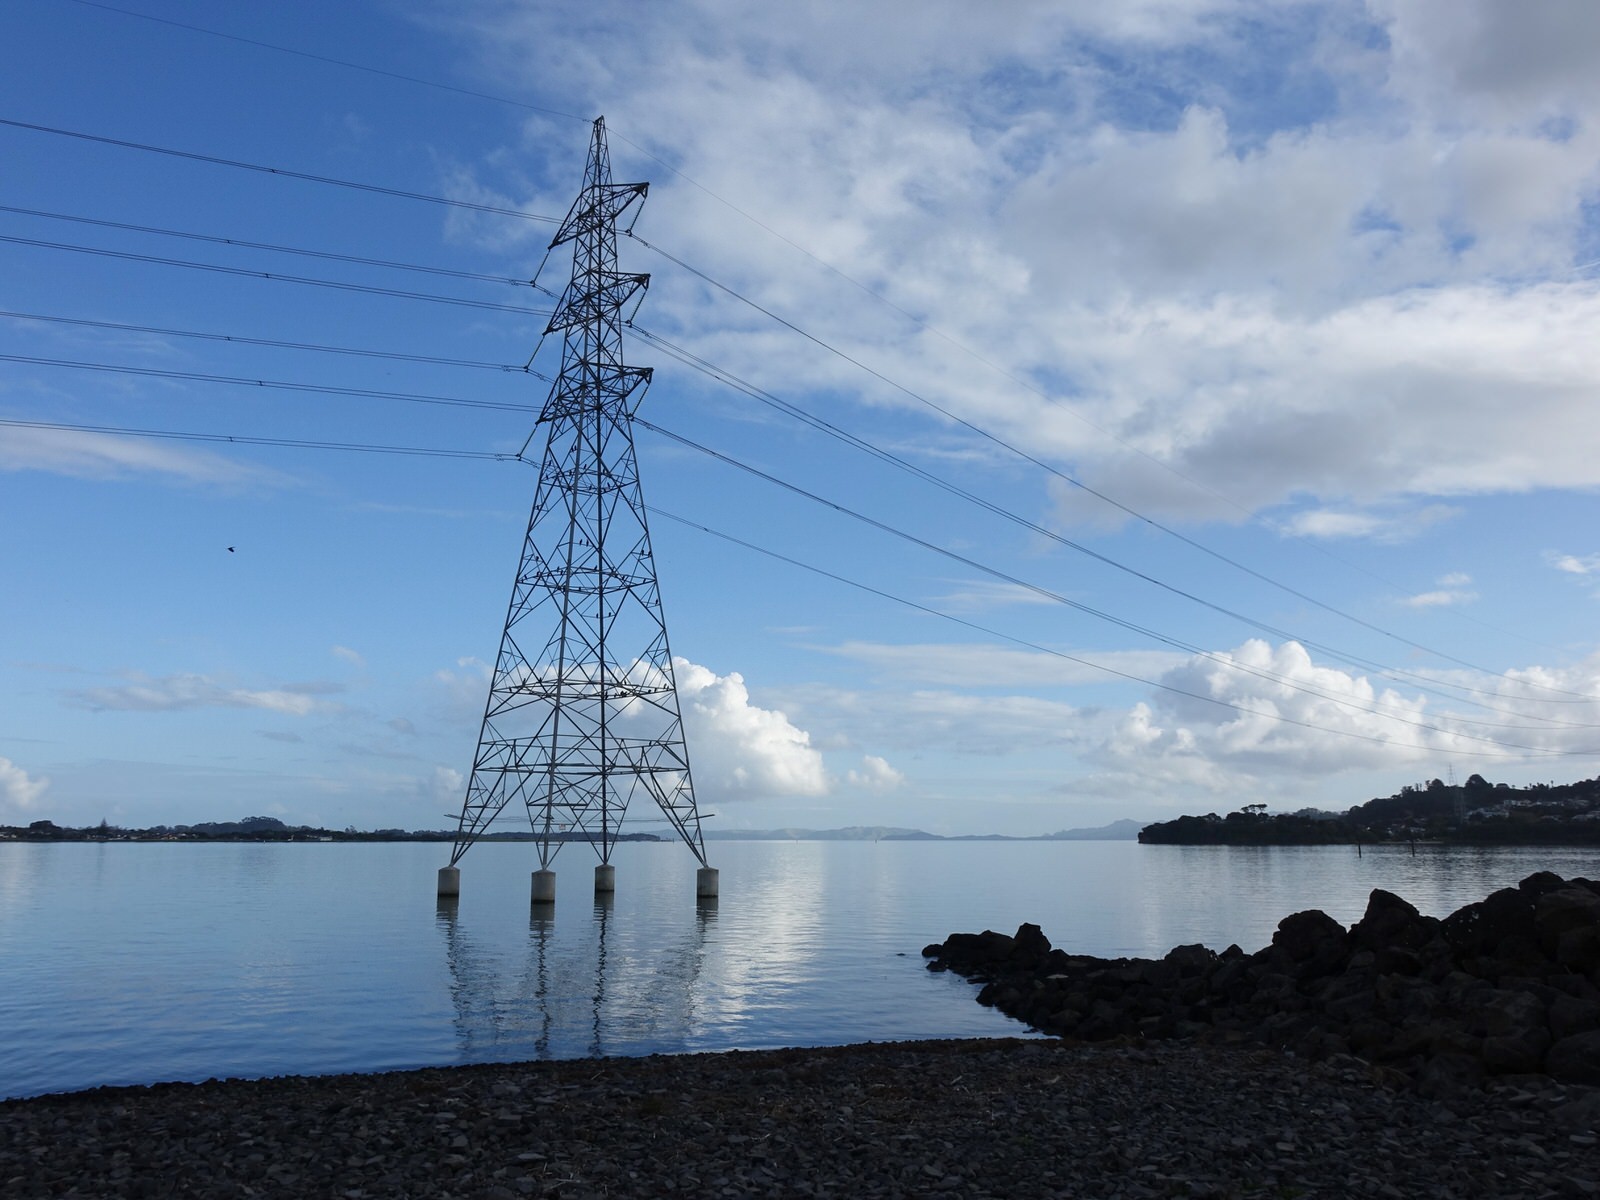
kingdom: Animalia
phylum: Chordata
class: Aves
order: Suliformes
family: Phalacrocoracidae
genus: Phalacrocorax
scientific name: Phalacrocorax sulcirostris
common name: Little black cormorant
